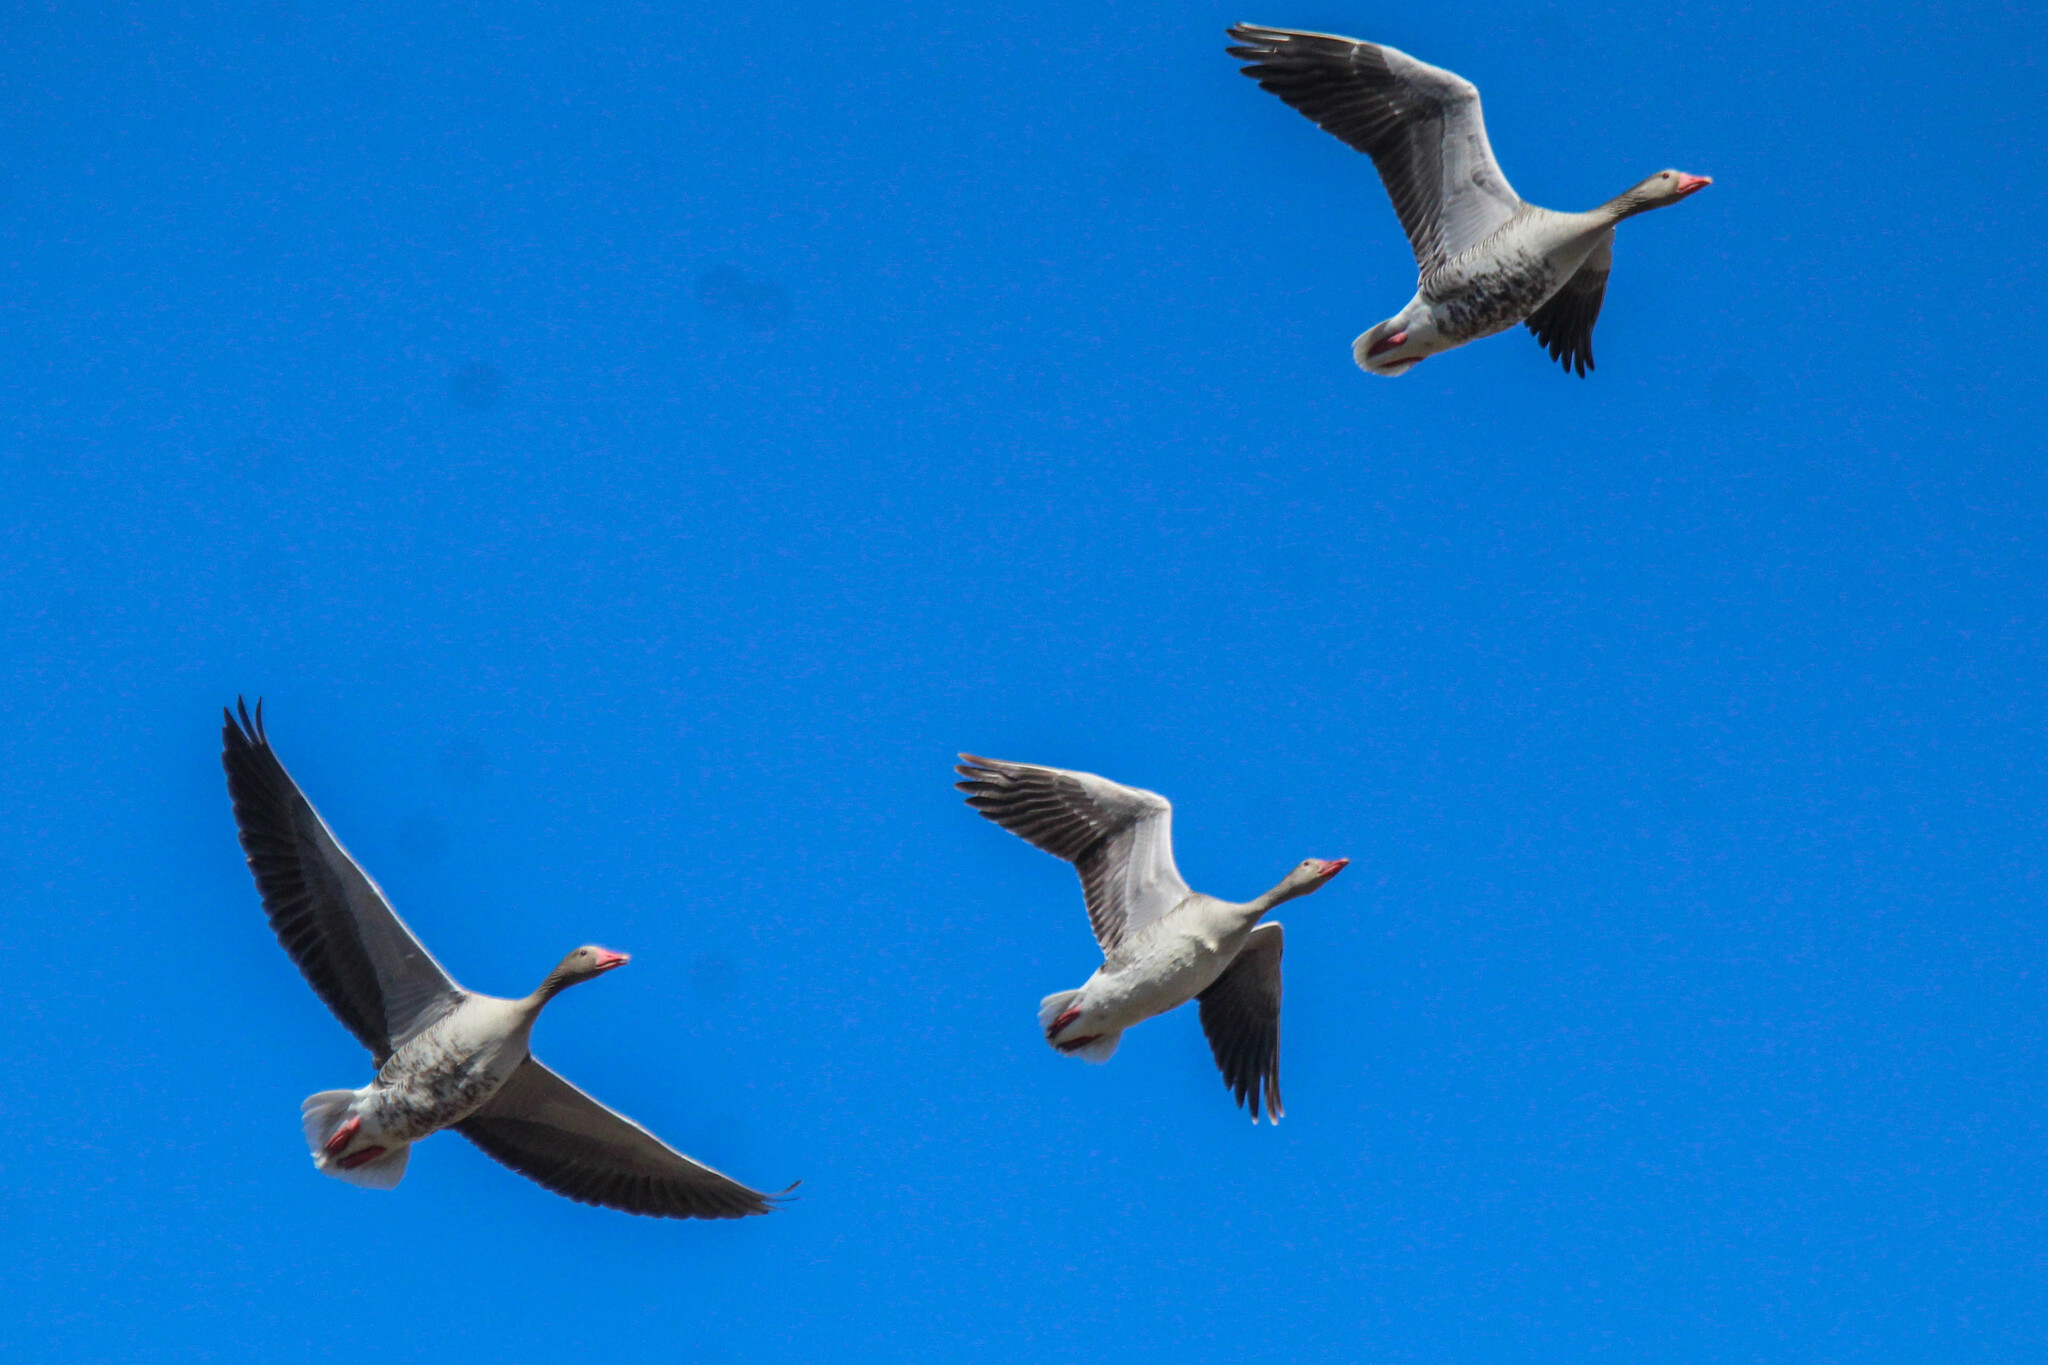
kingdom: Animalia
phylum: Chordata
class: Aves
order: Anseriformes
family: Anatidae
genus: Anser
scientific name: Anser anser
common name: Greylag goose
